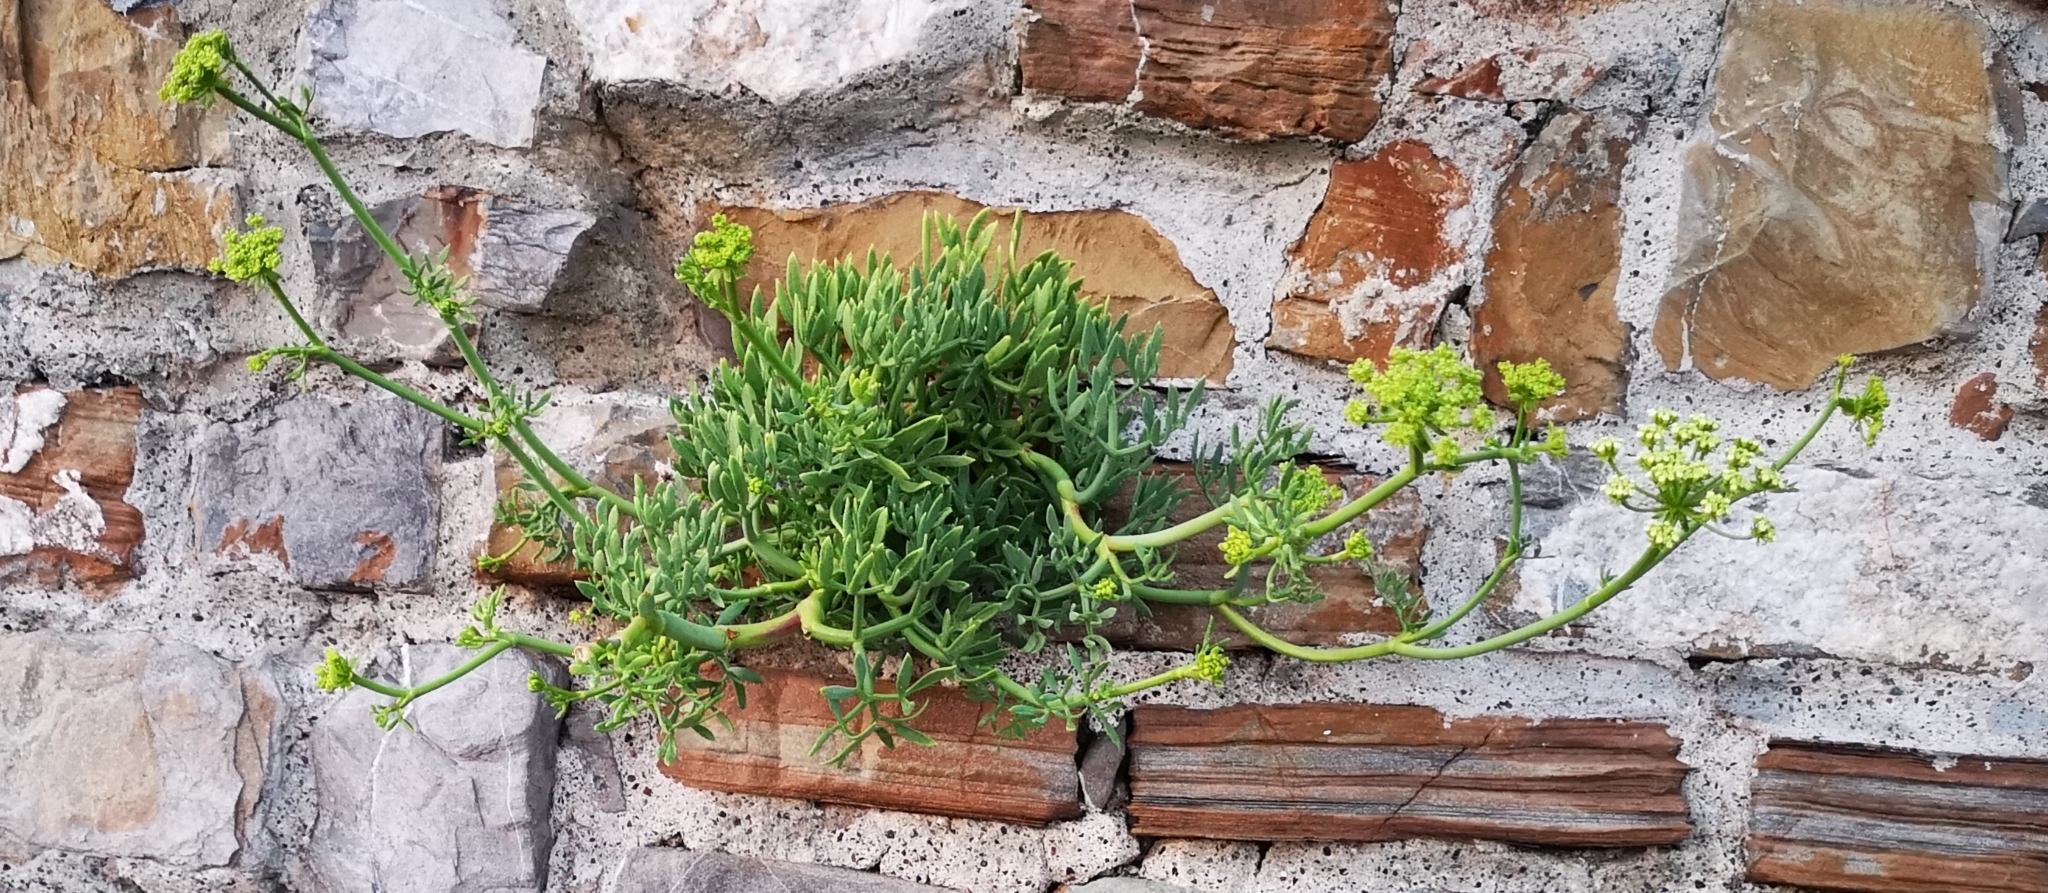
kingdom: Plantae
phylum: Tracheophyta
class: Magnoliopsida
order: Apiales
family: Apiaceae
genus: Crithmum
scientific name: Crithmum maritimum
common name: Rock samphire
